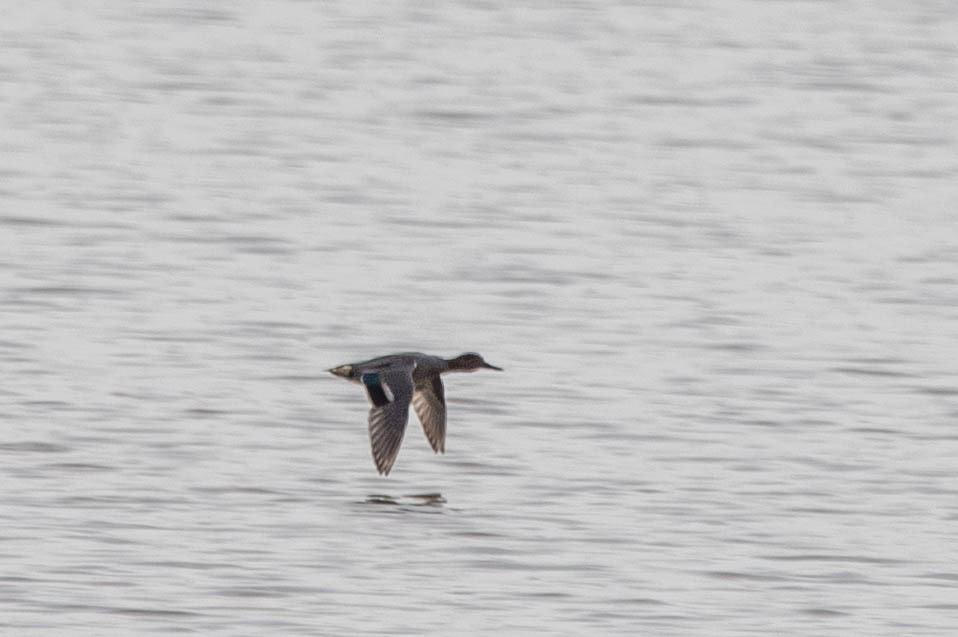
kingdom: Animalia
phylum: Chordata
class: Aves
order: Anseriformes
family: Anatidae
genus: Anas
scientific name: Anas crecca
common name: Eurasian teal
